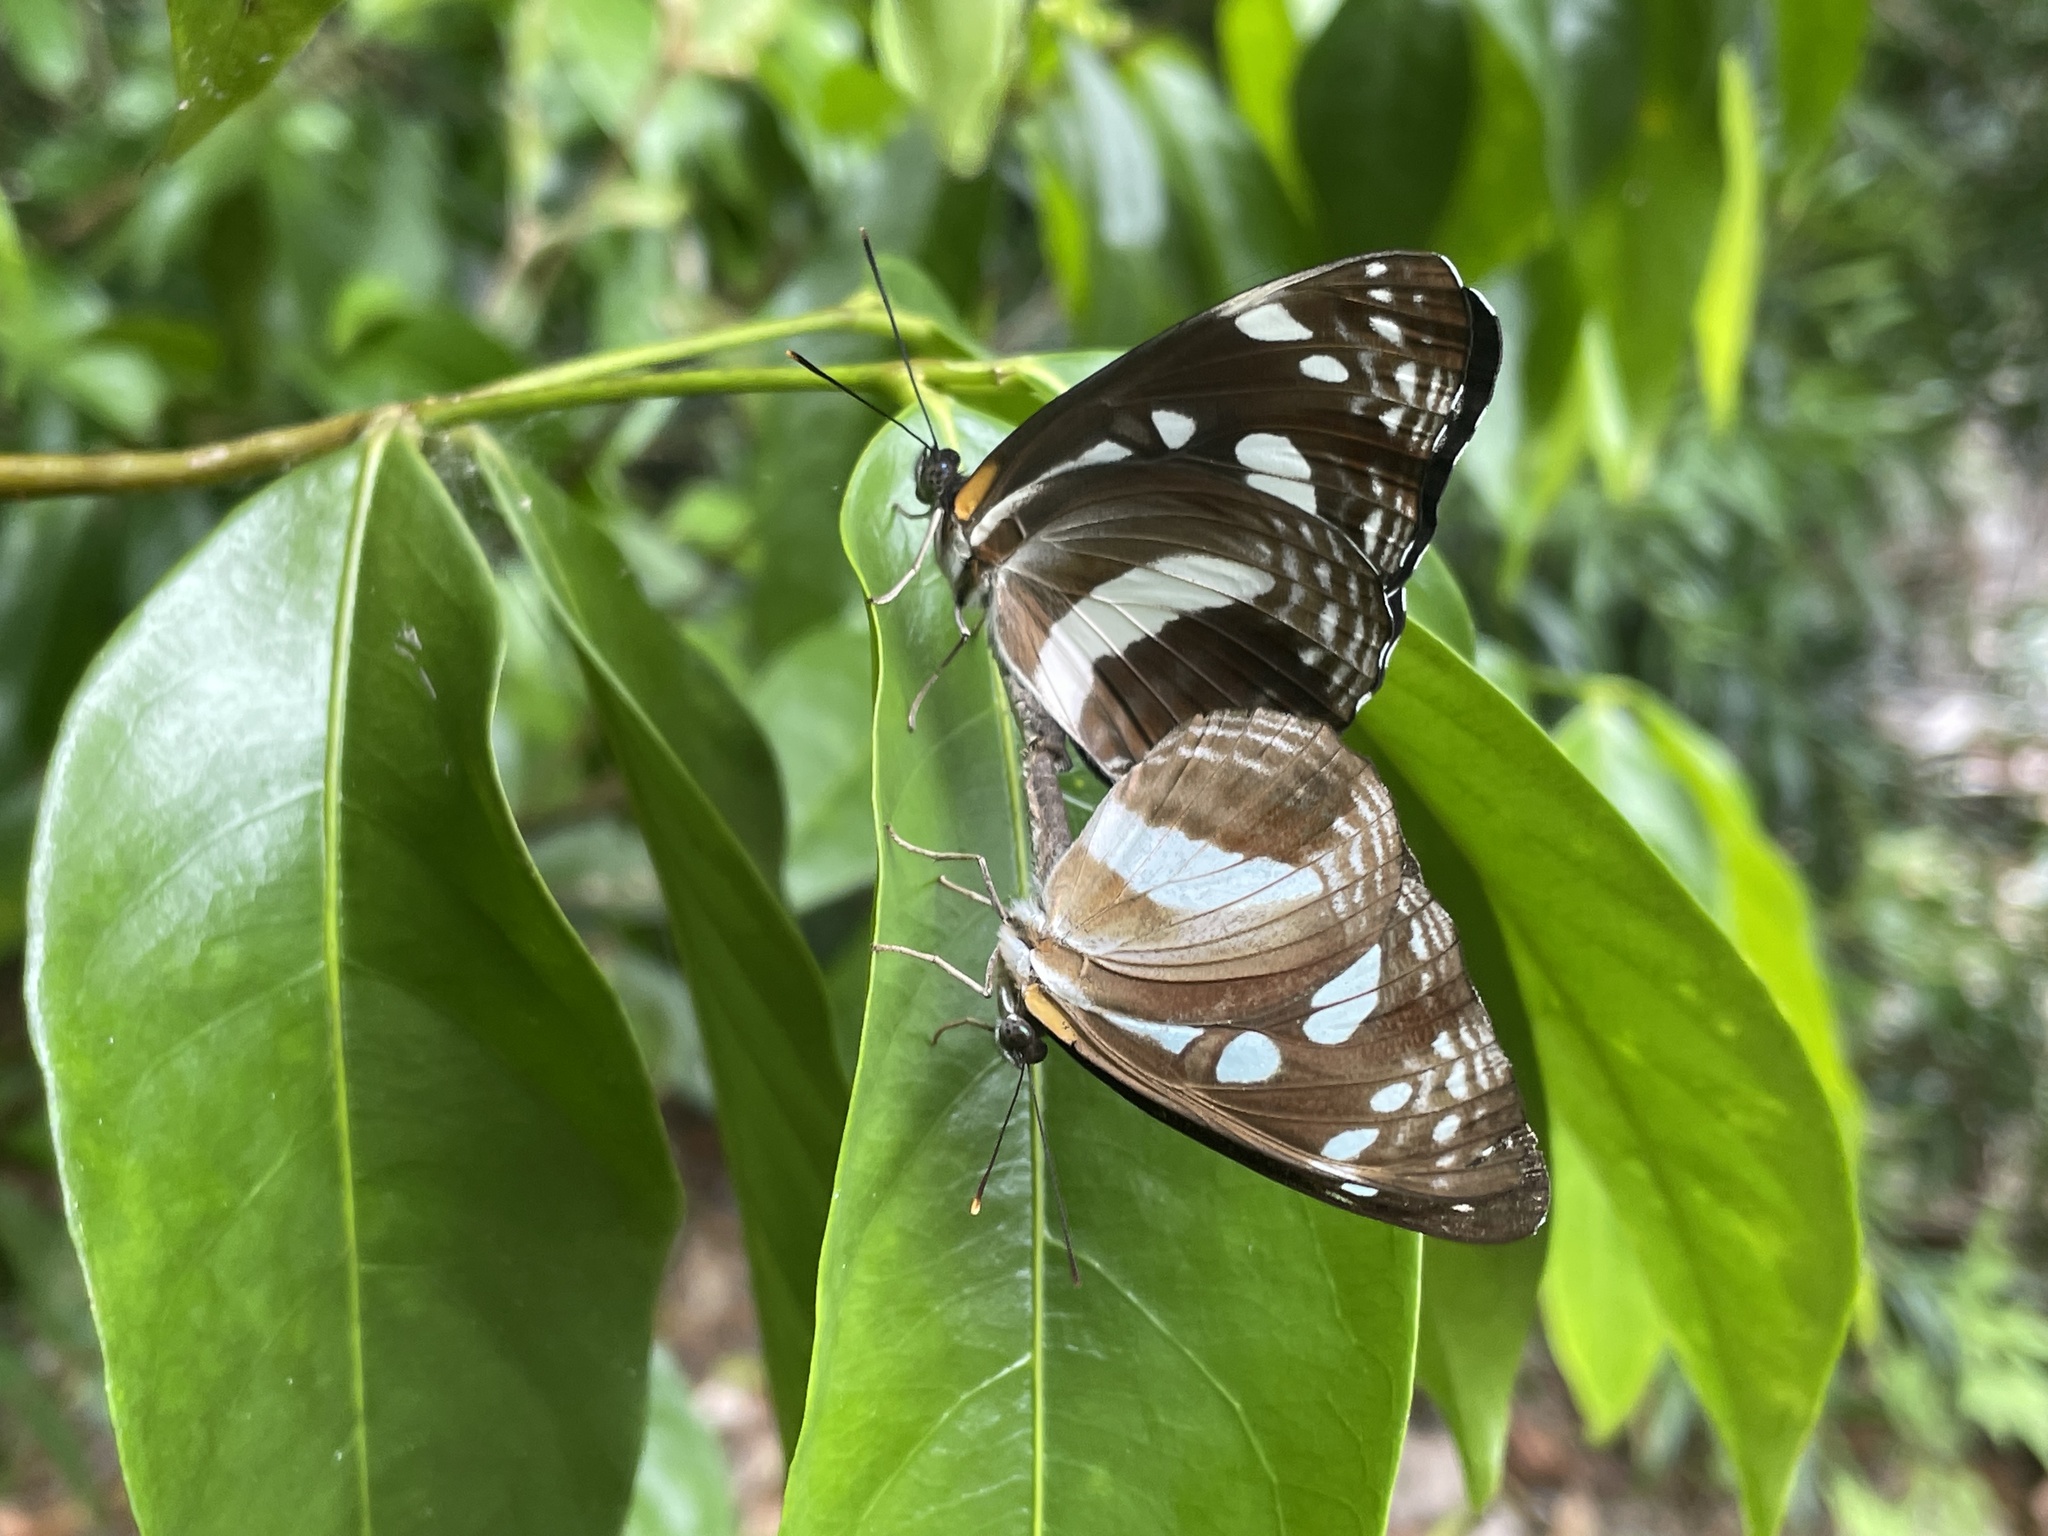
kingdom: Animalia
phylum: Arthropoda
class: Insecta
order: Lepidoptera
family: Nymphalidae
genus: Phaedyma
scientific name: Phaedyma shepherdi
